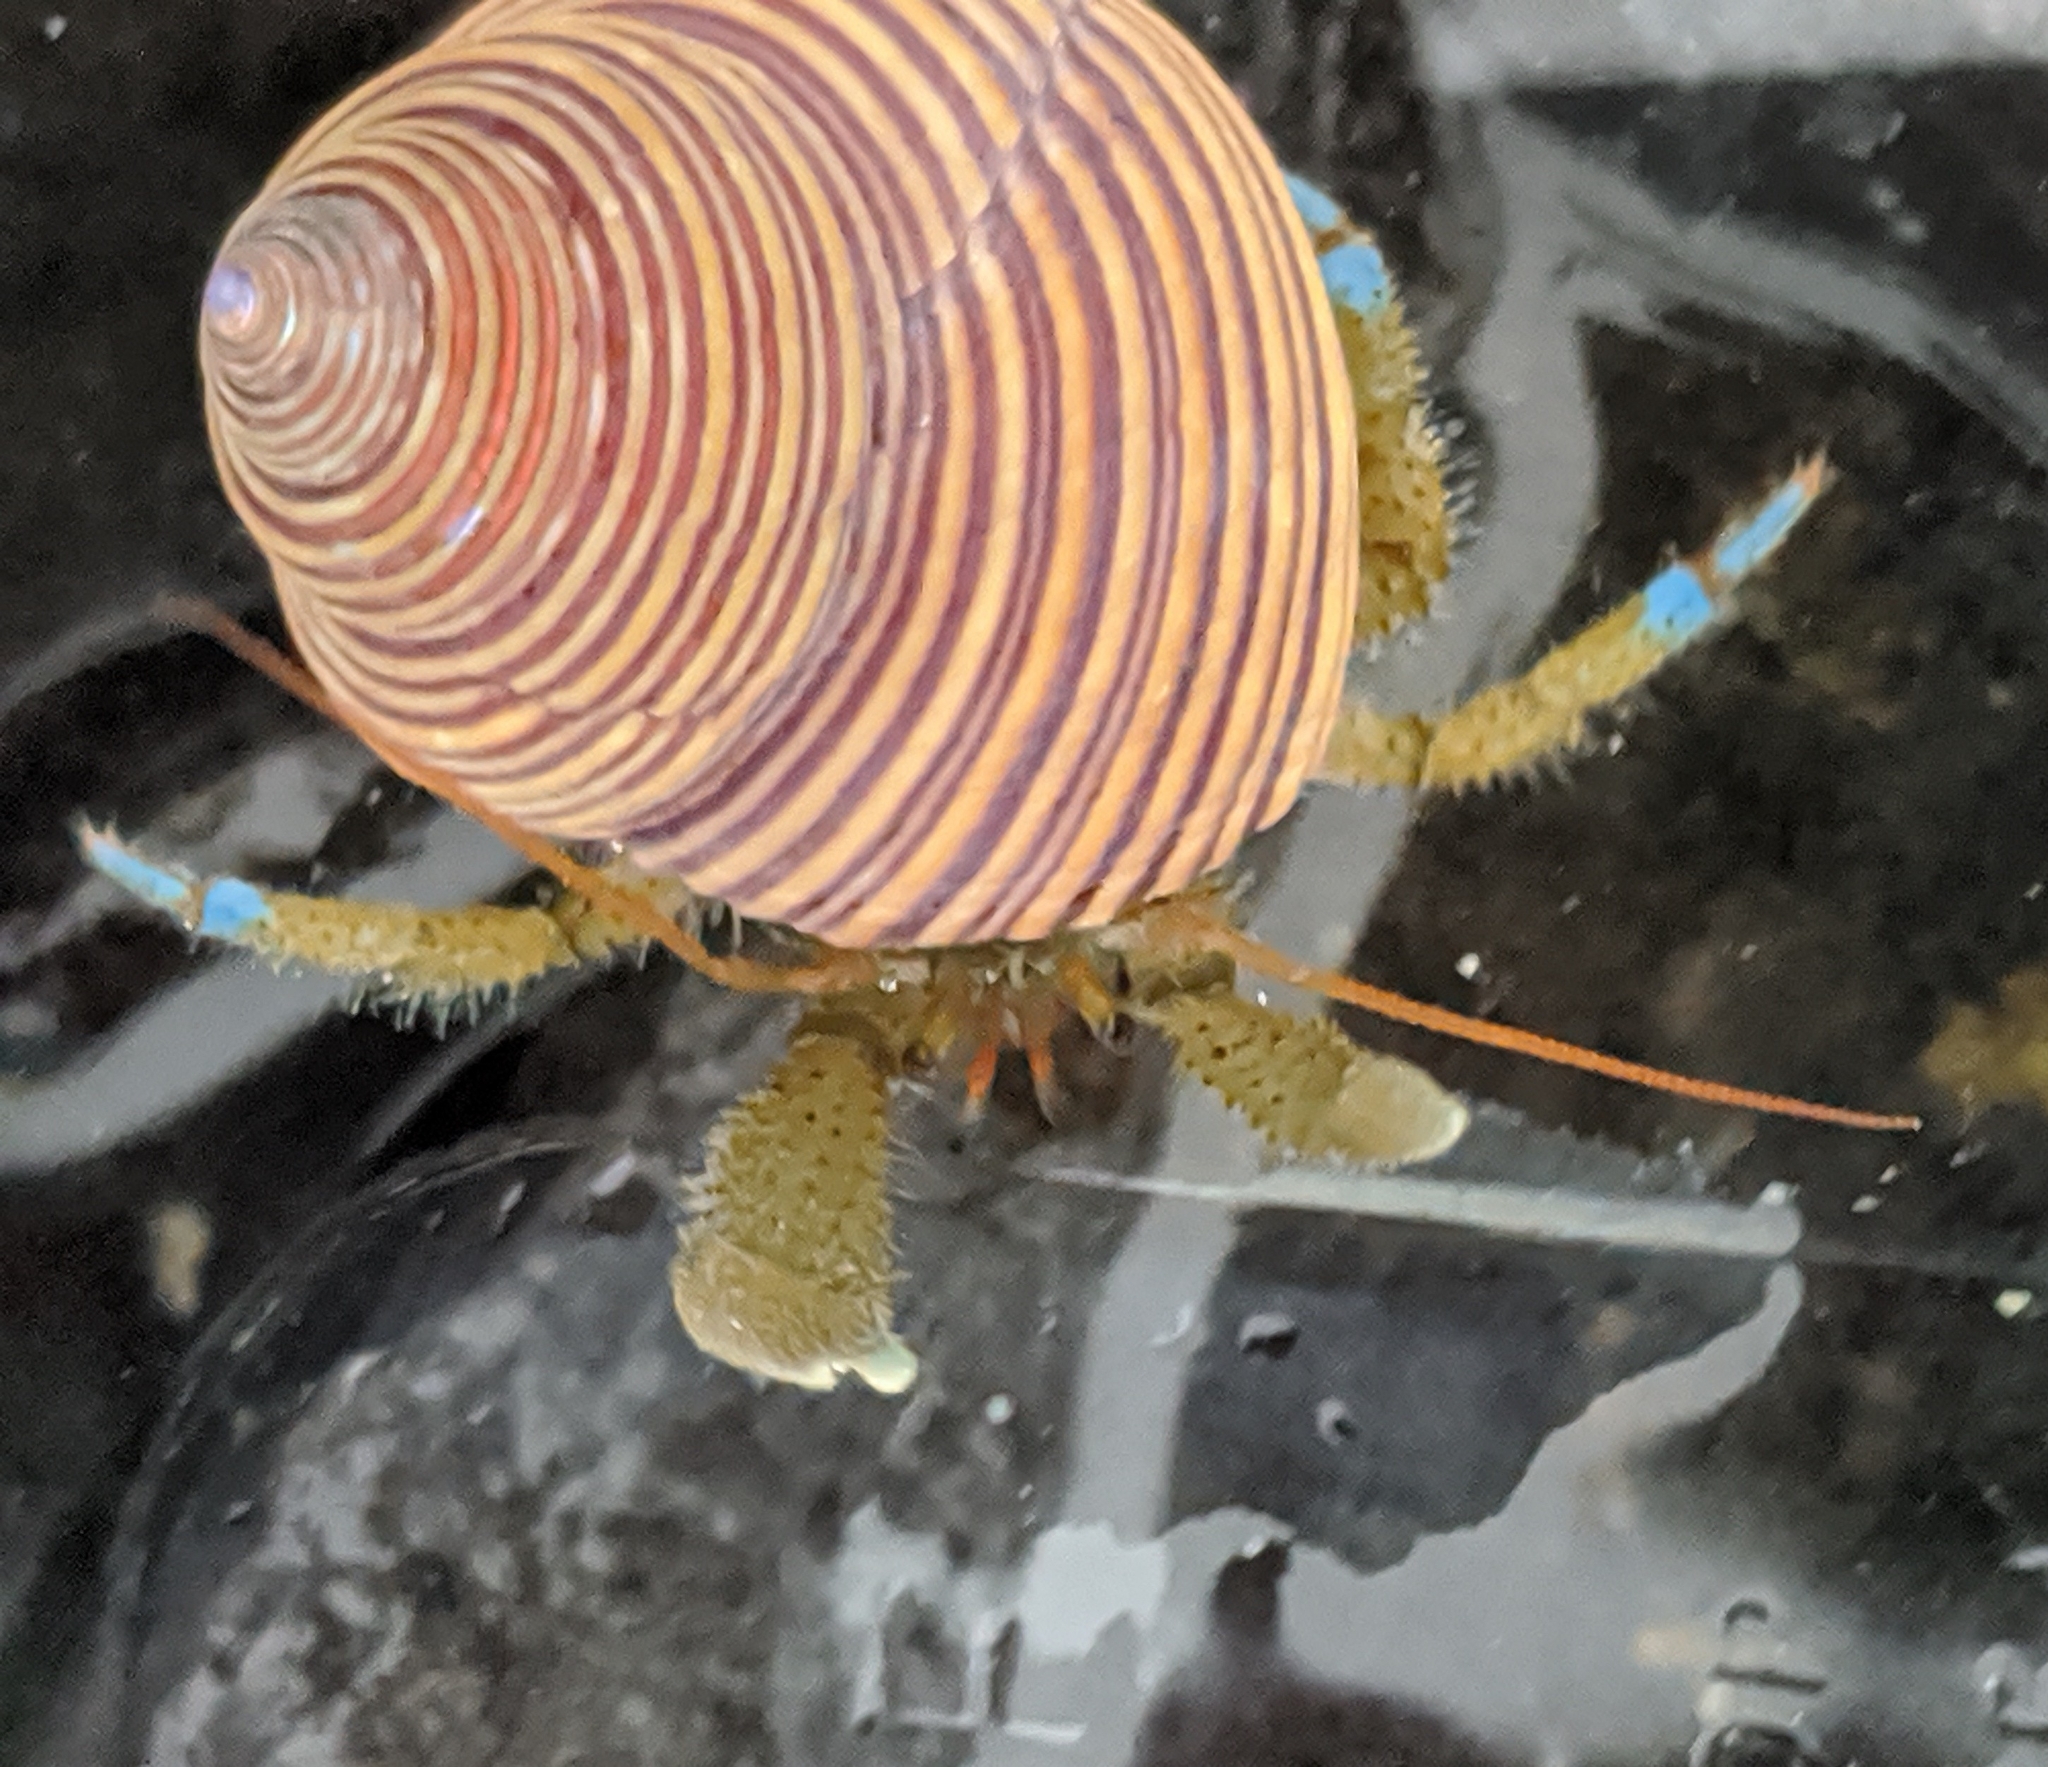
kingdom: Animalia
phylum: Arthropoda
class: Malacostraca
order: Decapoda
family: Paguridae
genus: Pagurus
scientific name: Pagurus samuelis
